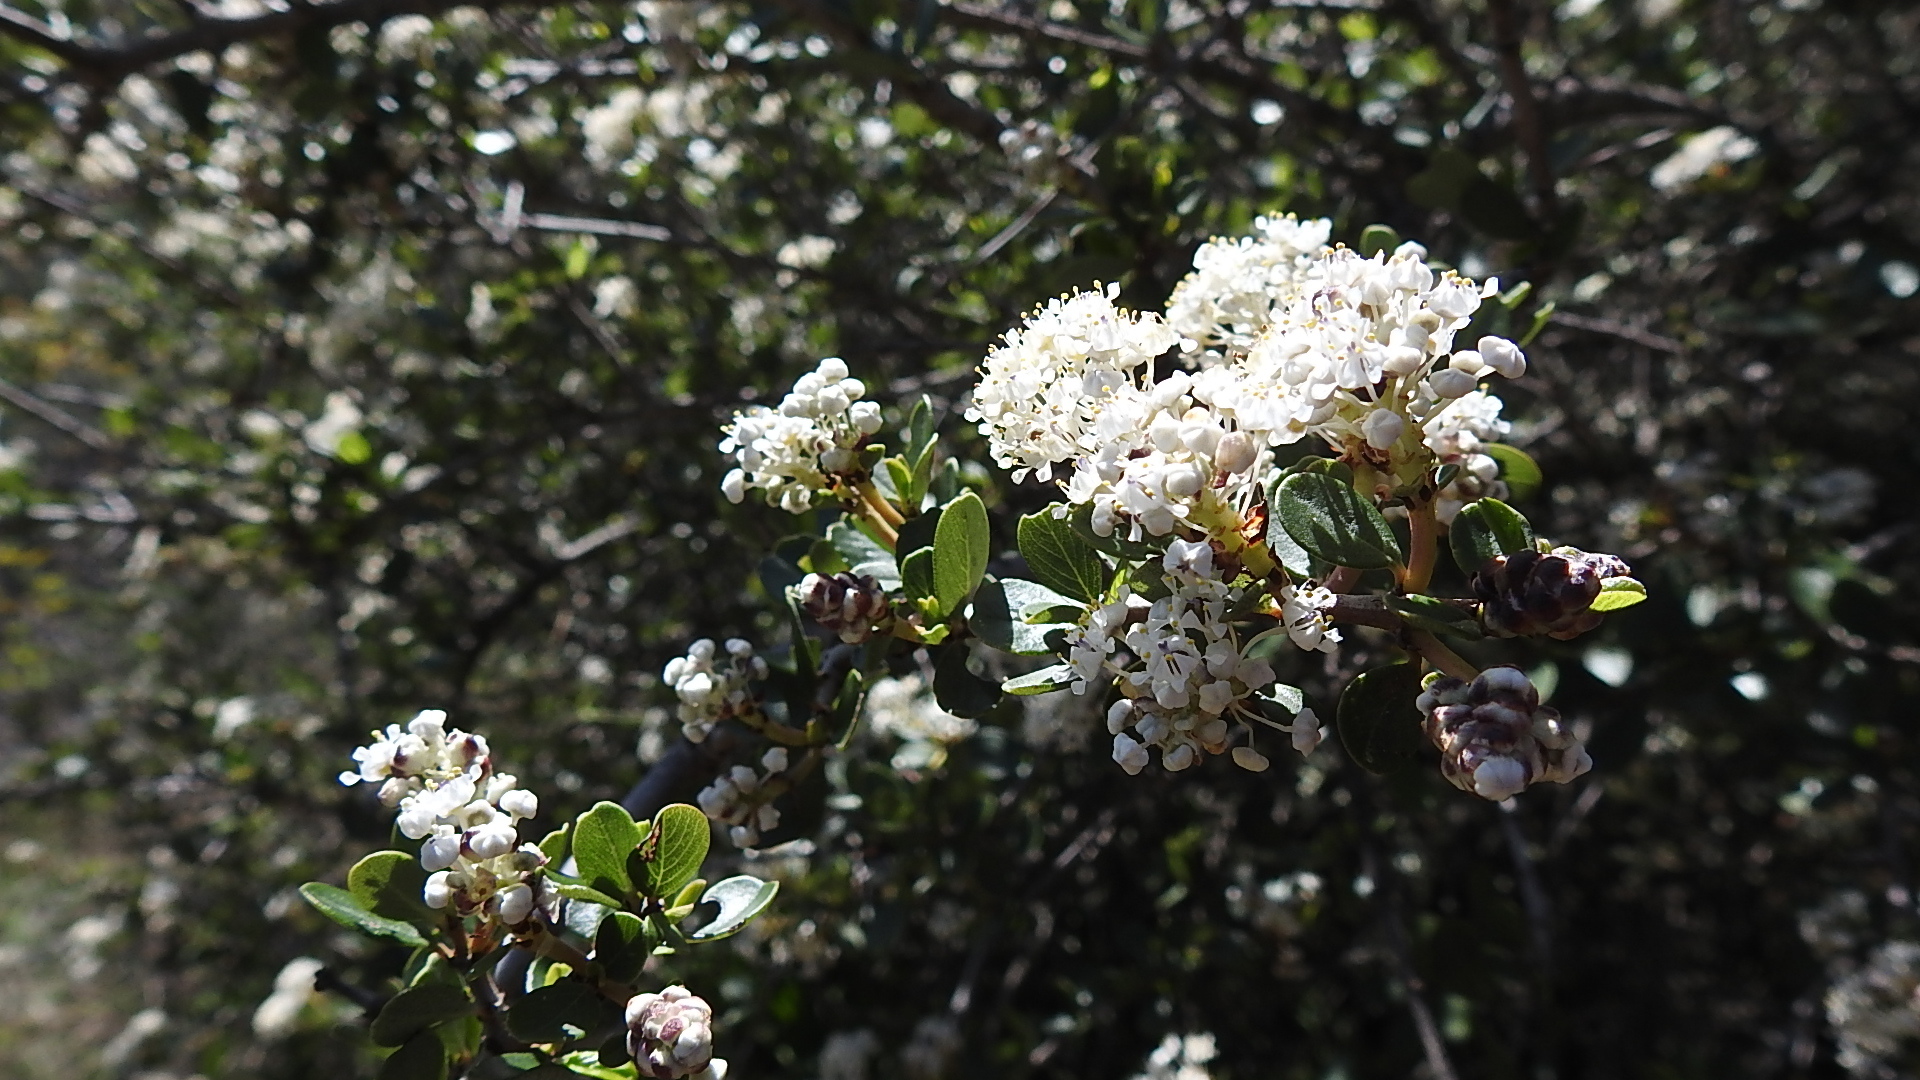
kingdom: Plantae
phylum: Tracheophyta
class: Magnoliopsida
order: Rosales
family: Rhamnaceae
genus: Ceanothus
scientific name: Ceanothus cuneatus
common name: Cuneate ceanothus
